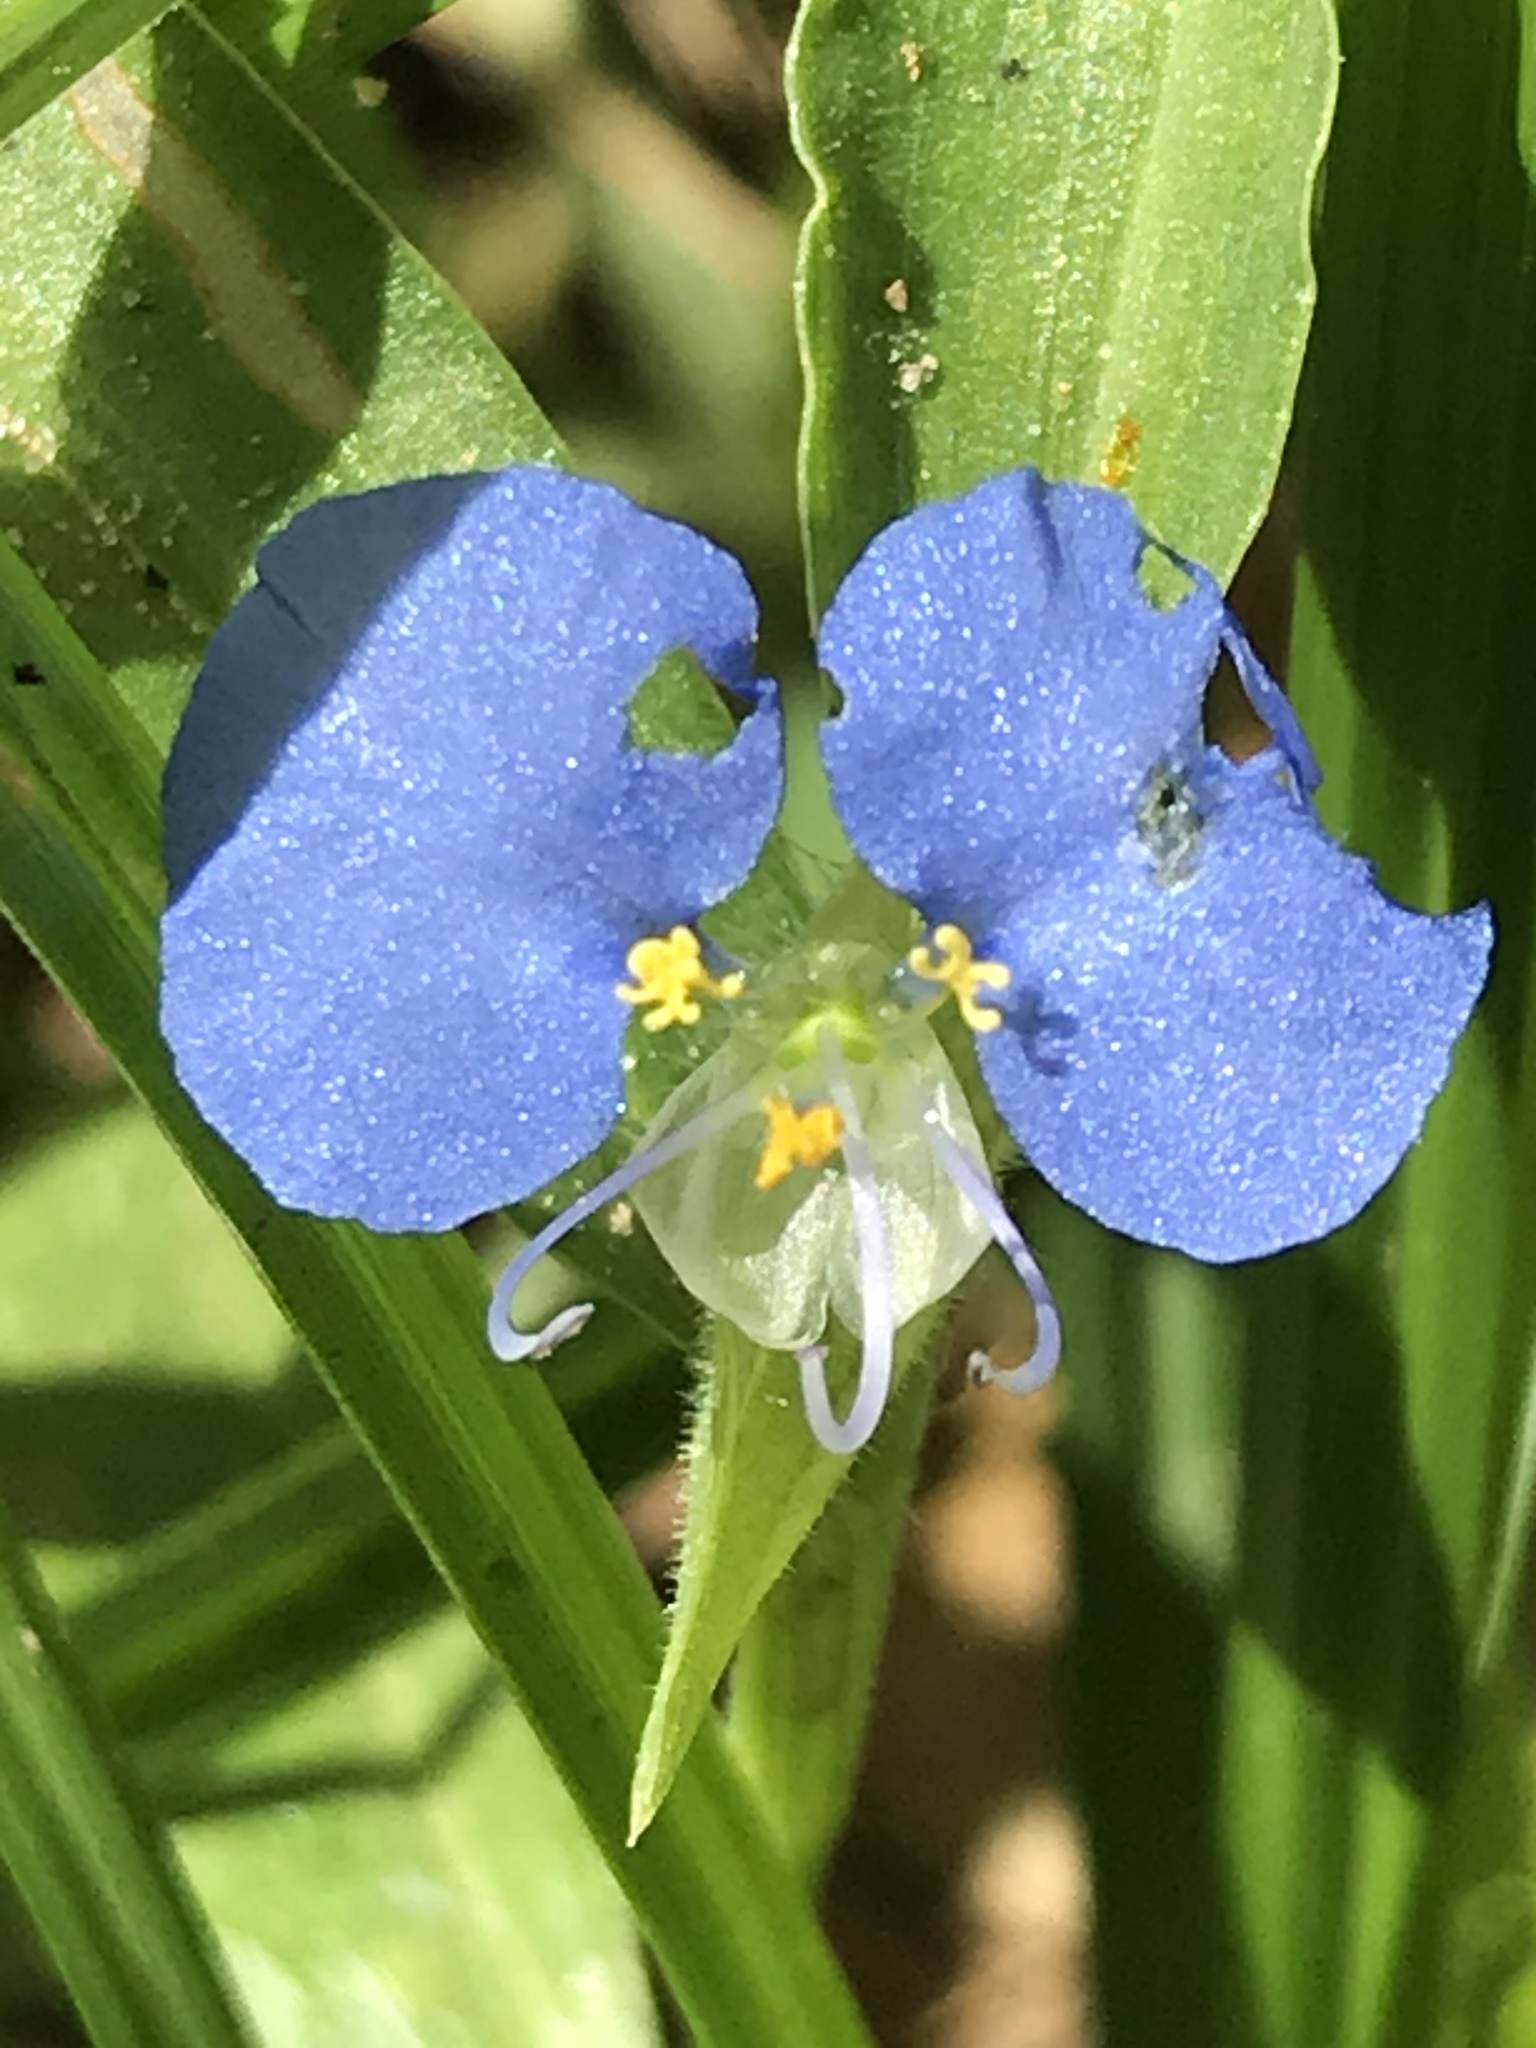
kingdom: Plantae
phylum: Tracheophyta
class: Liliopsida
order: Commelinales
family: Commelinaceae
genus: Commelina
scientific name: Commelina erecta
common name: Blousel blommetjie
